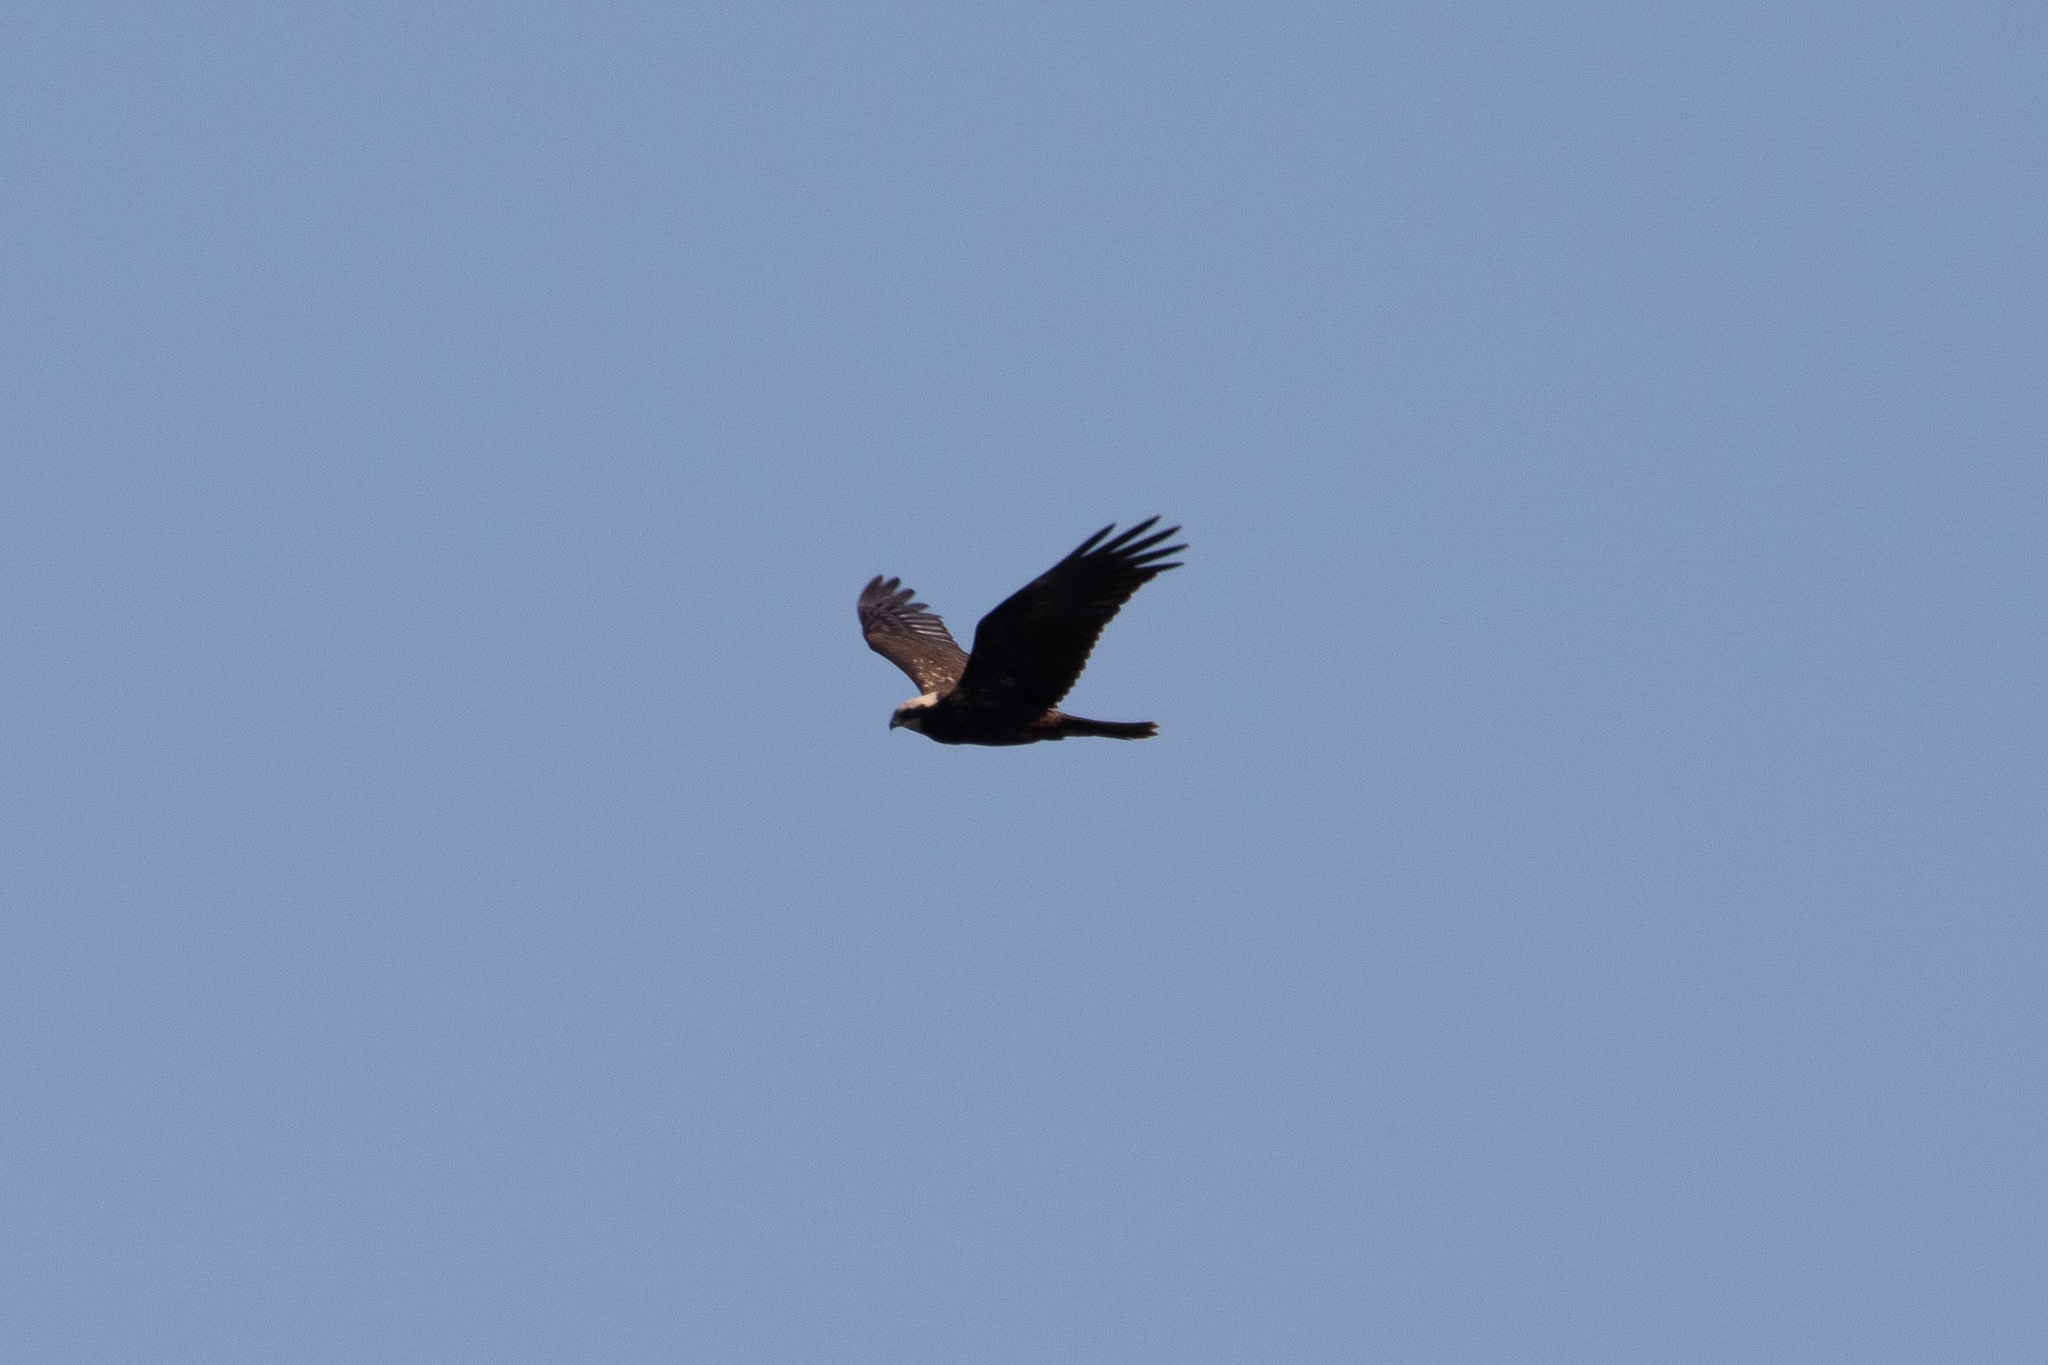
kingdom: Animalia
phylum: Chordata
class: Aves
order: Accipitriformes
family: Accipitridae
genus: Circus
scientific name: Circus aeruginosus
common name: Western marsh harrier
